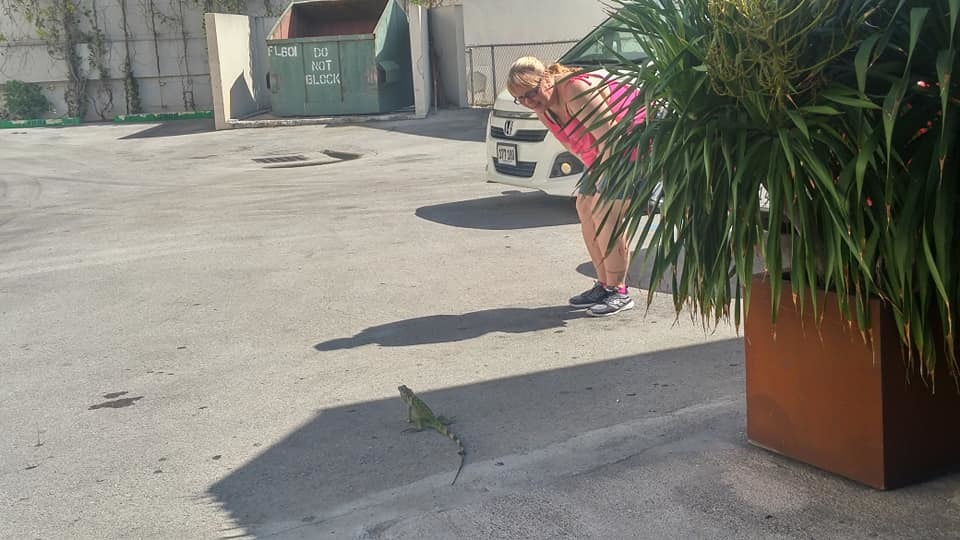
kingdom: Animalia
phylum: Chordata
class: Squamata
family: Iguanidae
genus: Iguana
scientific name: Iguana iguana
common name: Green iguana
